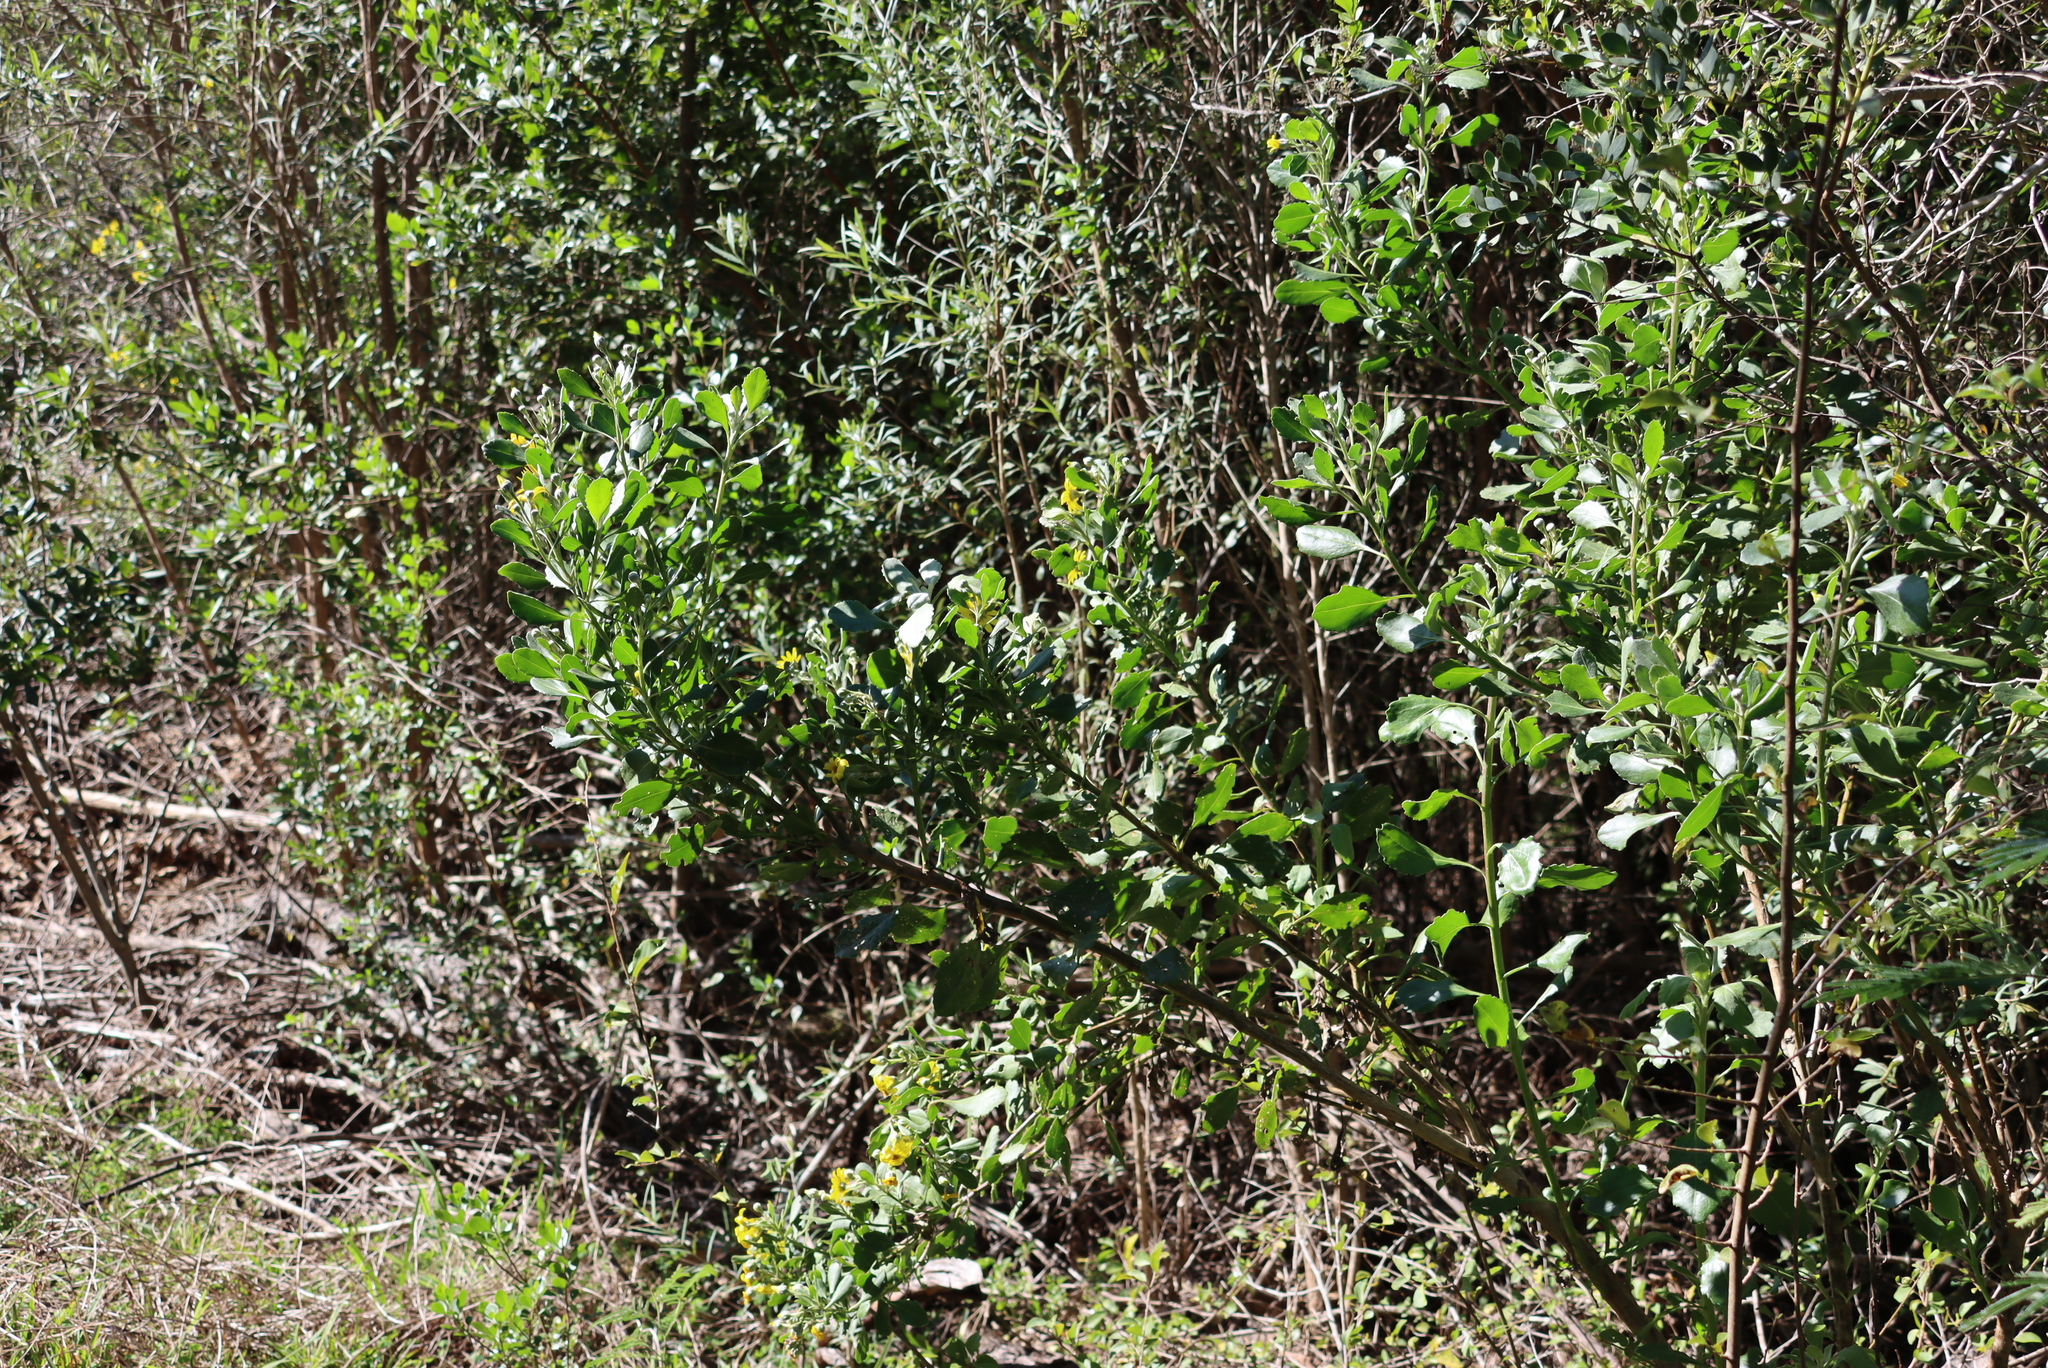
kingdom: Plantae
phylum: Tracheophyta
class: Magnoliopsida
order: Asterales
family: Asteraceae
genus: Osteospermum
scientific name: Osteospermum moniliferum
